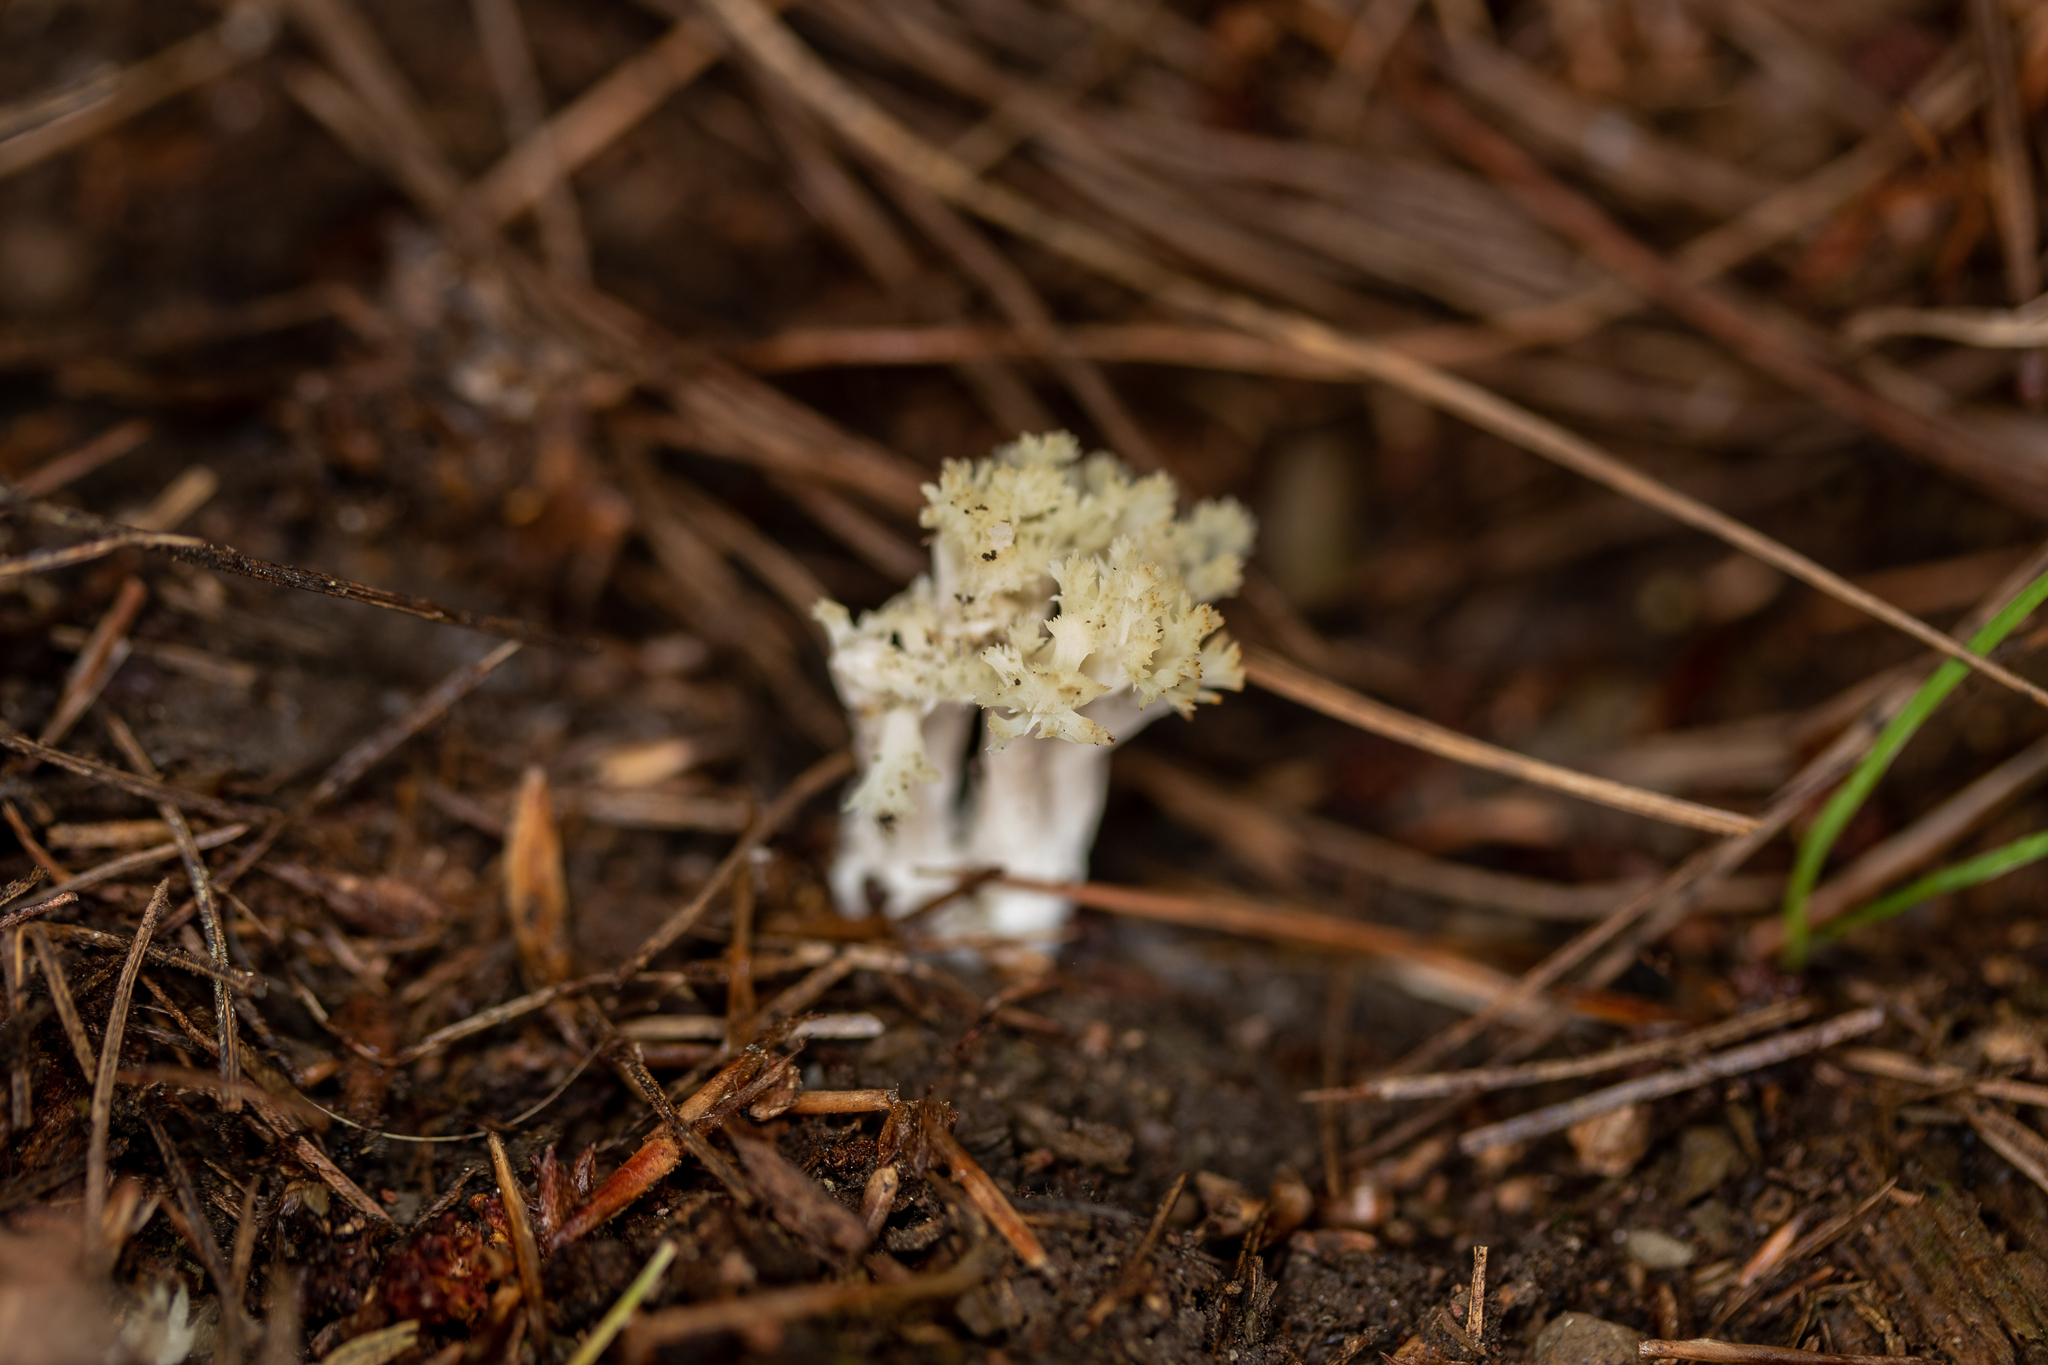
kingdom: Fungi
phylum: Basidiomycota
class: Agaricomycetes
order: Cantharellales
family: Hydnaceae
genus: Clavulina
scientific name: Clavulina coralloides
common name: Crested coral
